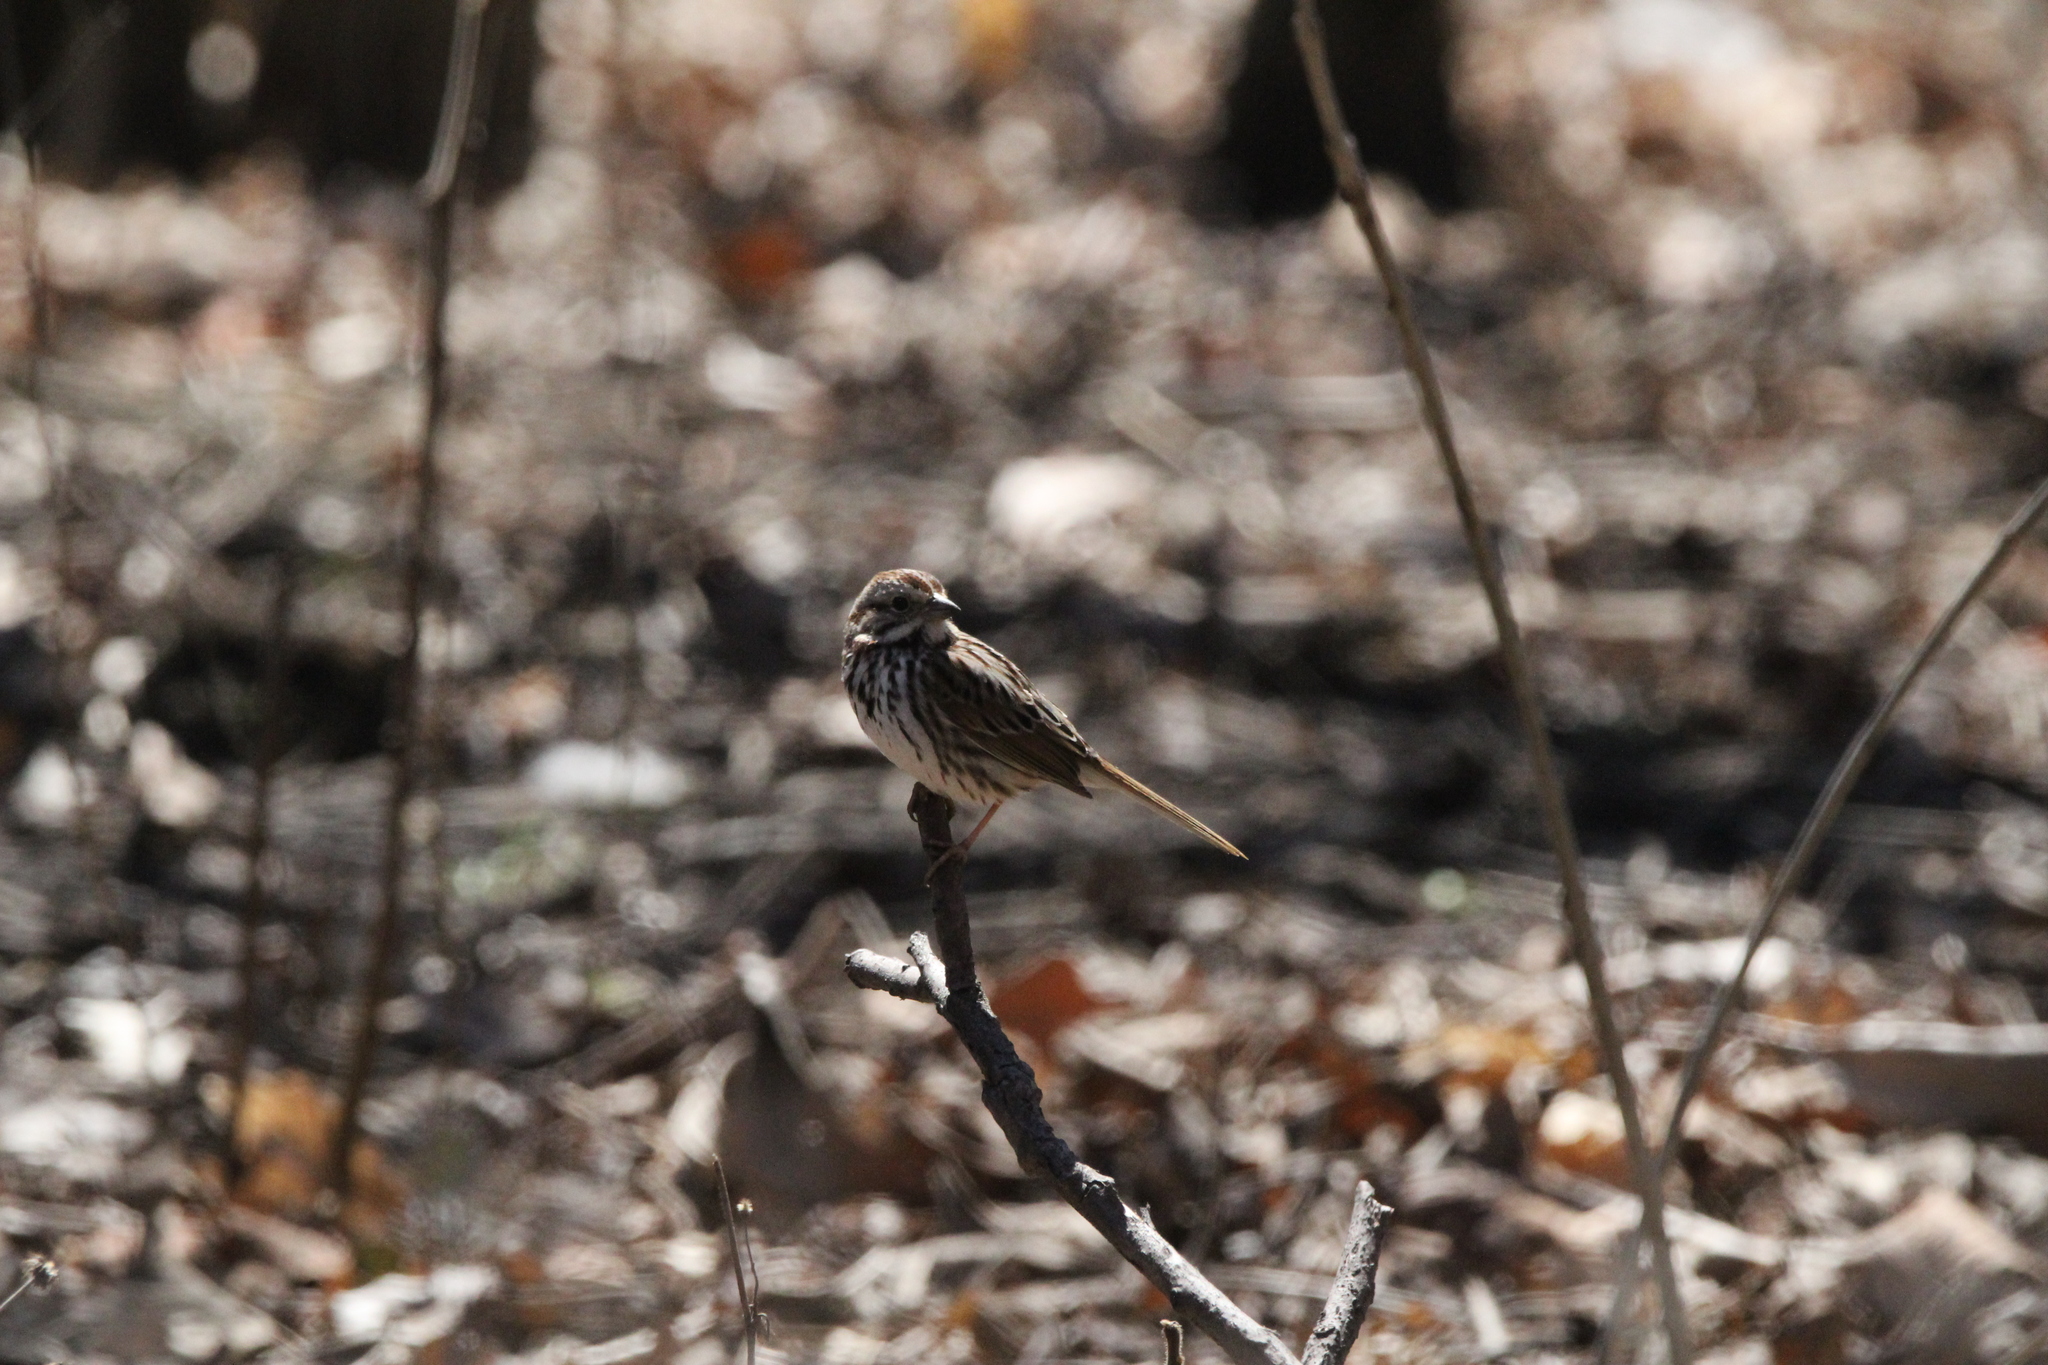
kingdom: Animalia
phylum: Chordata
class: Aves
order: Passeriformes
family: Passerellidae
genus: Melospiza
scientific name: Melospiza melodia
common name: Song sparrow
